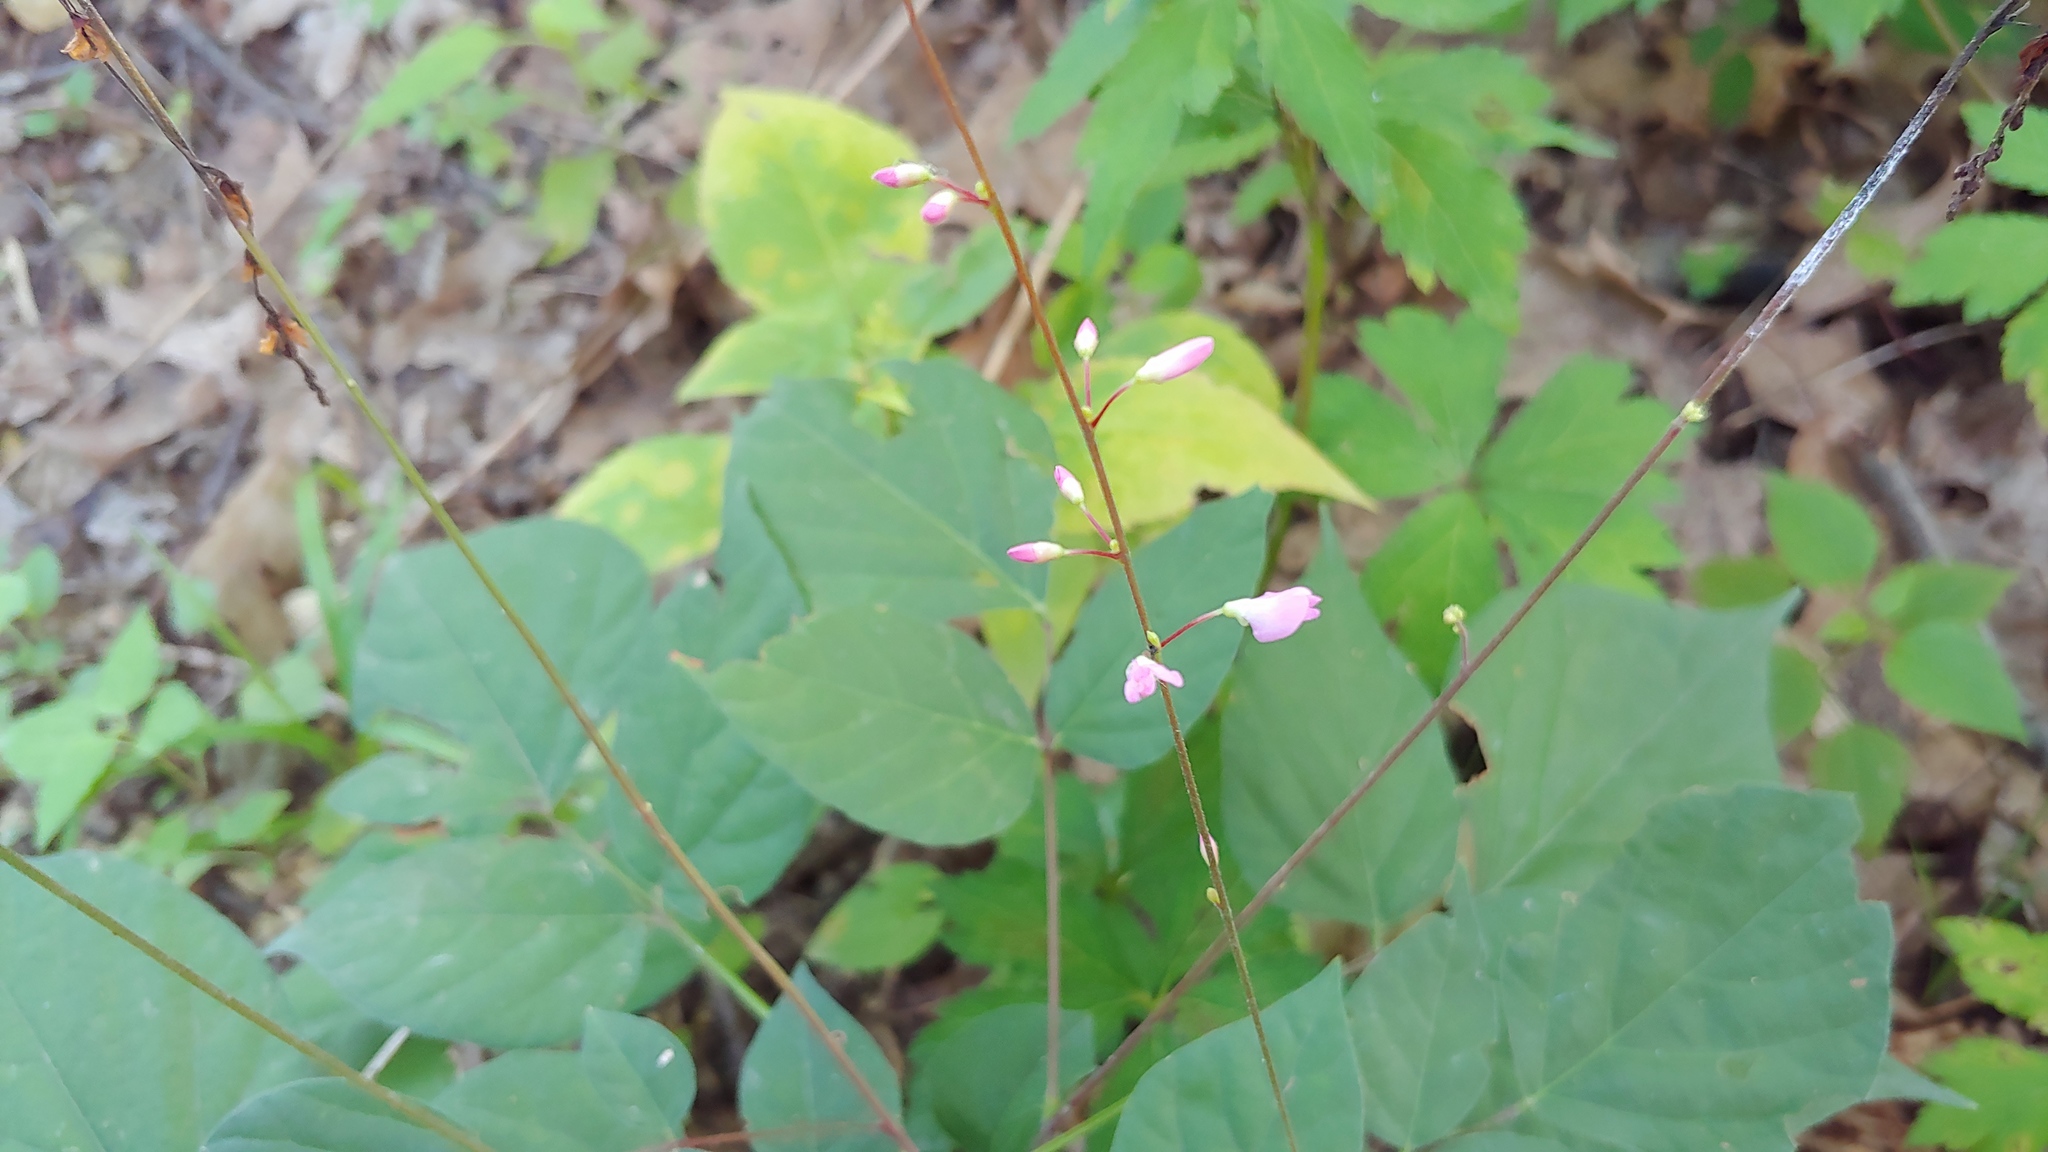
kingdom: Plantae
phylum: Tracheophyta
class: Magnoliopsida
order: Fabales
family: Fabaceae
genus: Hylodesmum
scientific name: Hylodesmum glutinosum
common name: Clustered-leaved tick-trefoil
